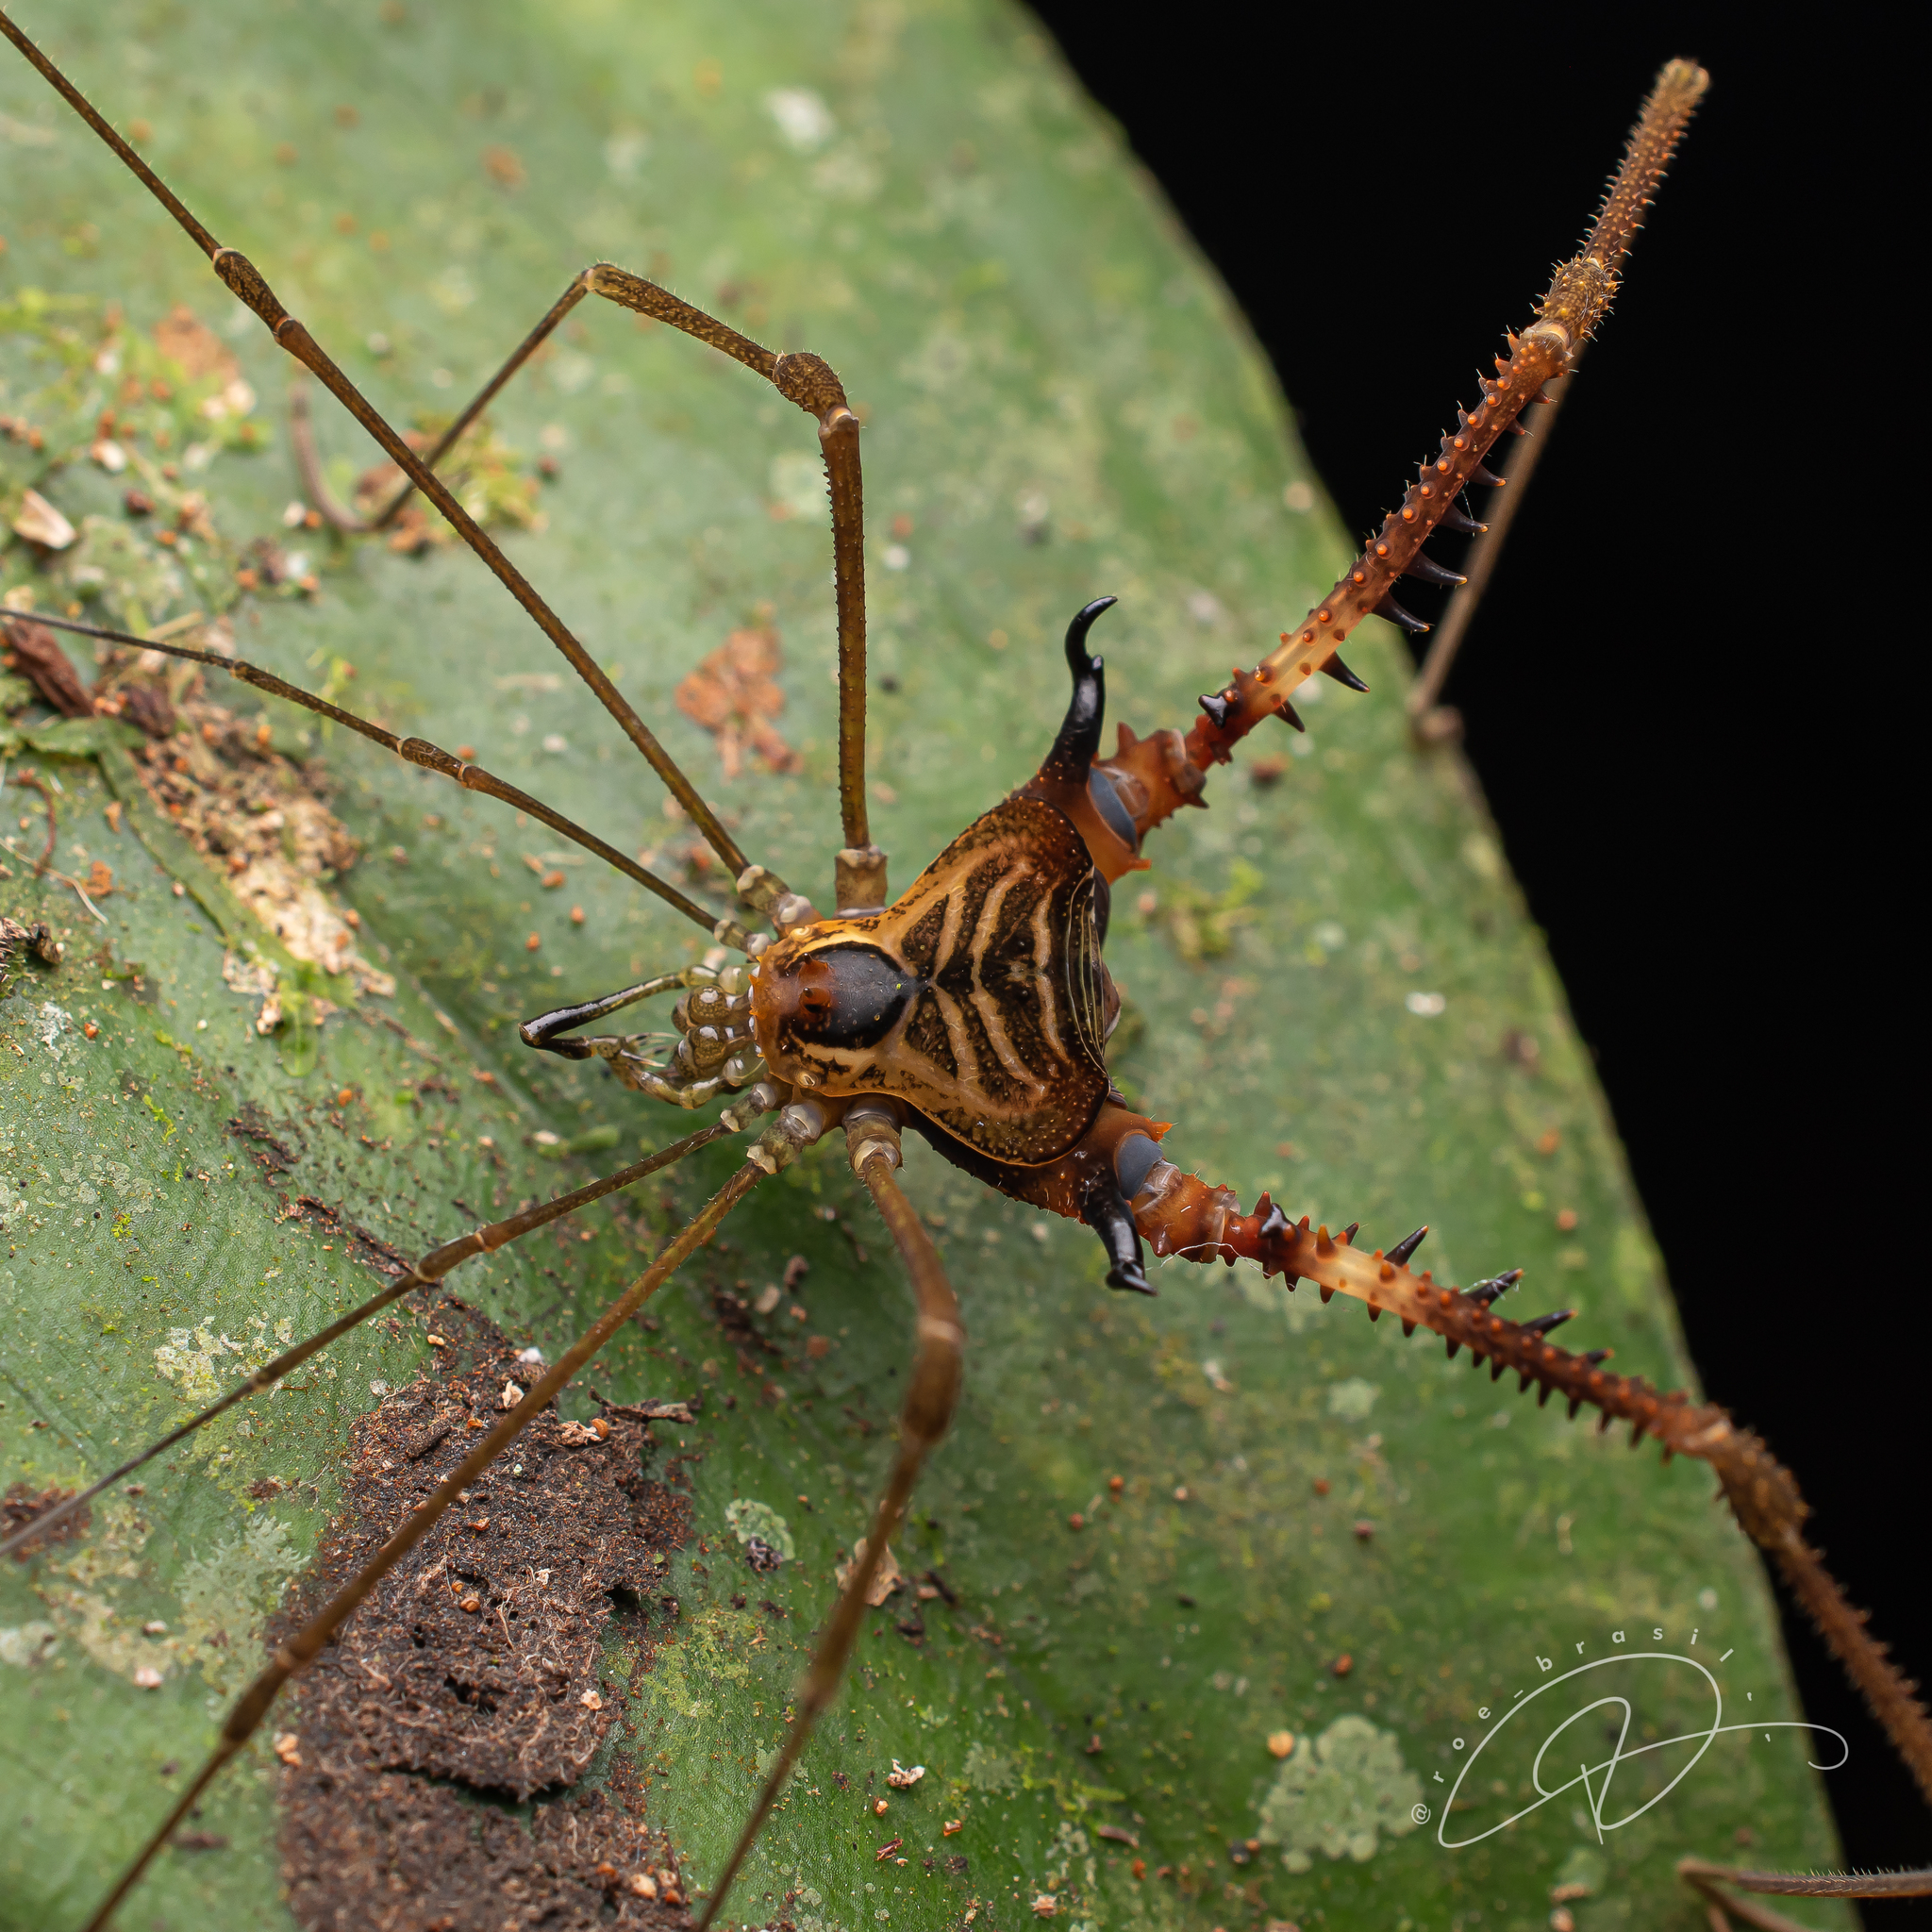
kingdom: Animalia
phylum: Arthropoda
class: Arachnida
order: Opiliones
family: Gonyleptidae
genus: Progonyleptoidellus
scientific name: Progonyleptoidellus striatus
